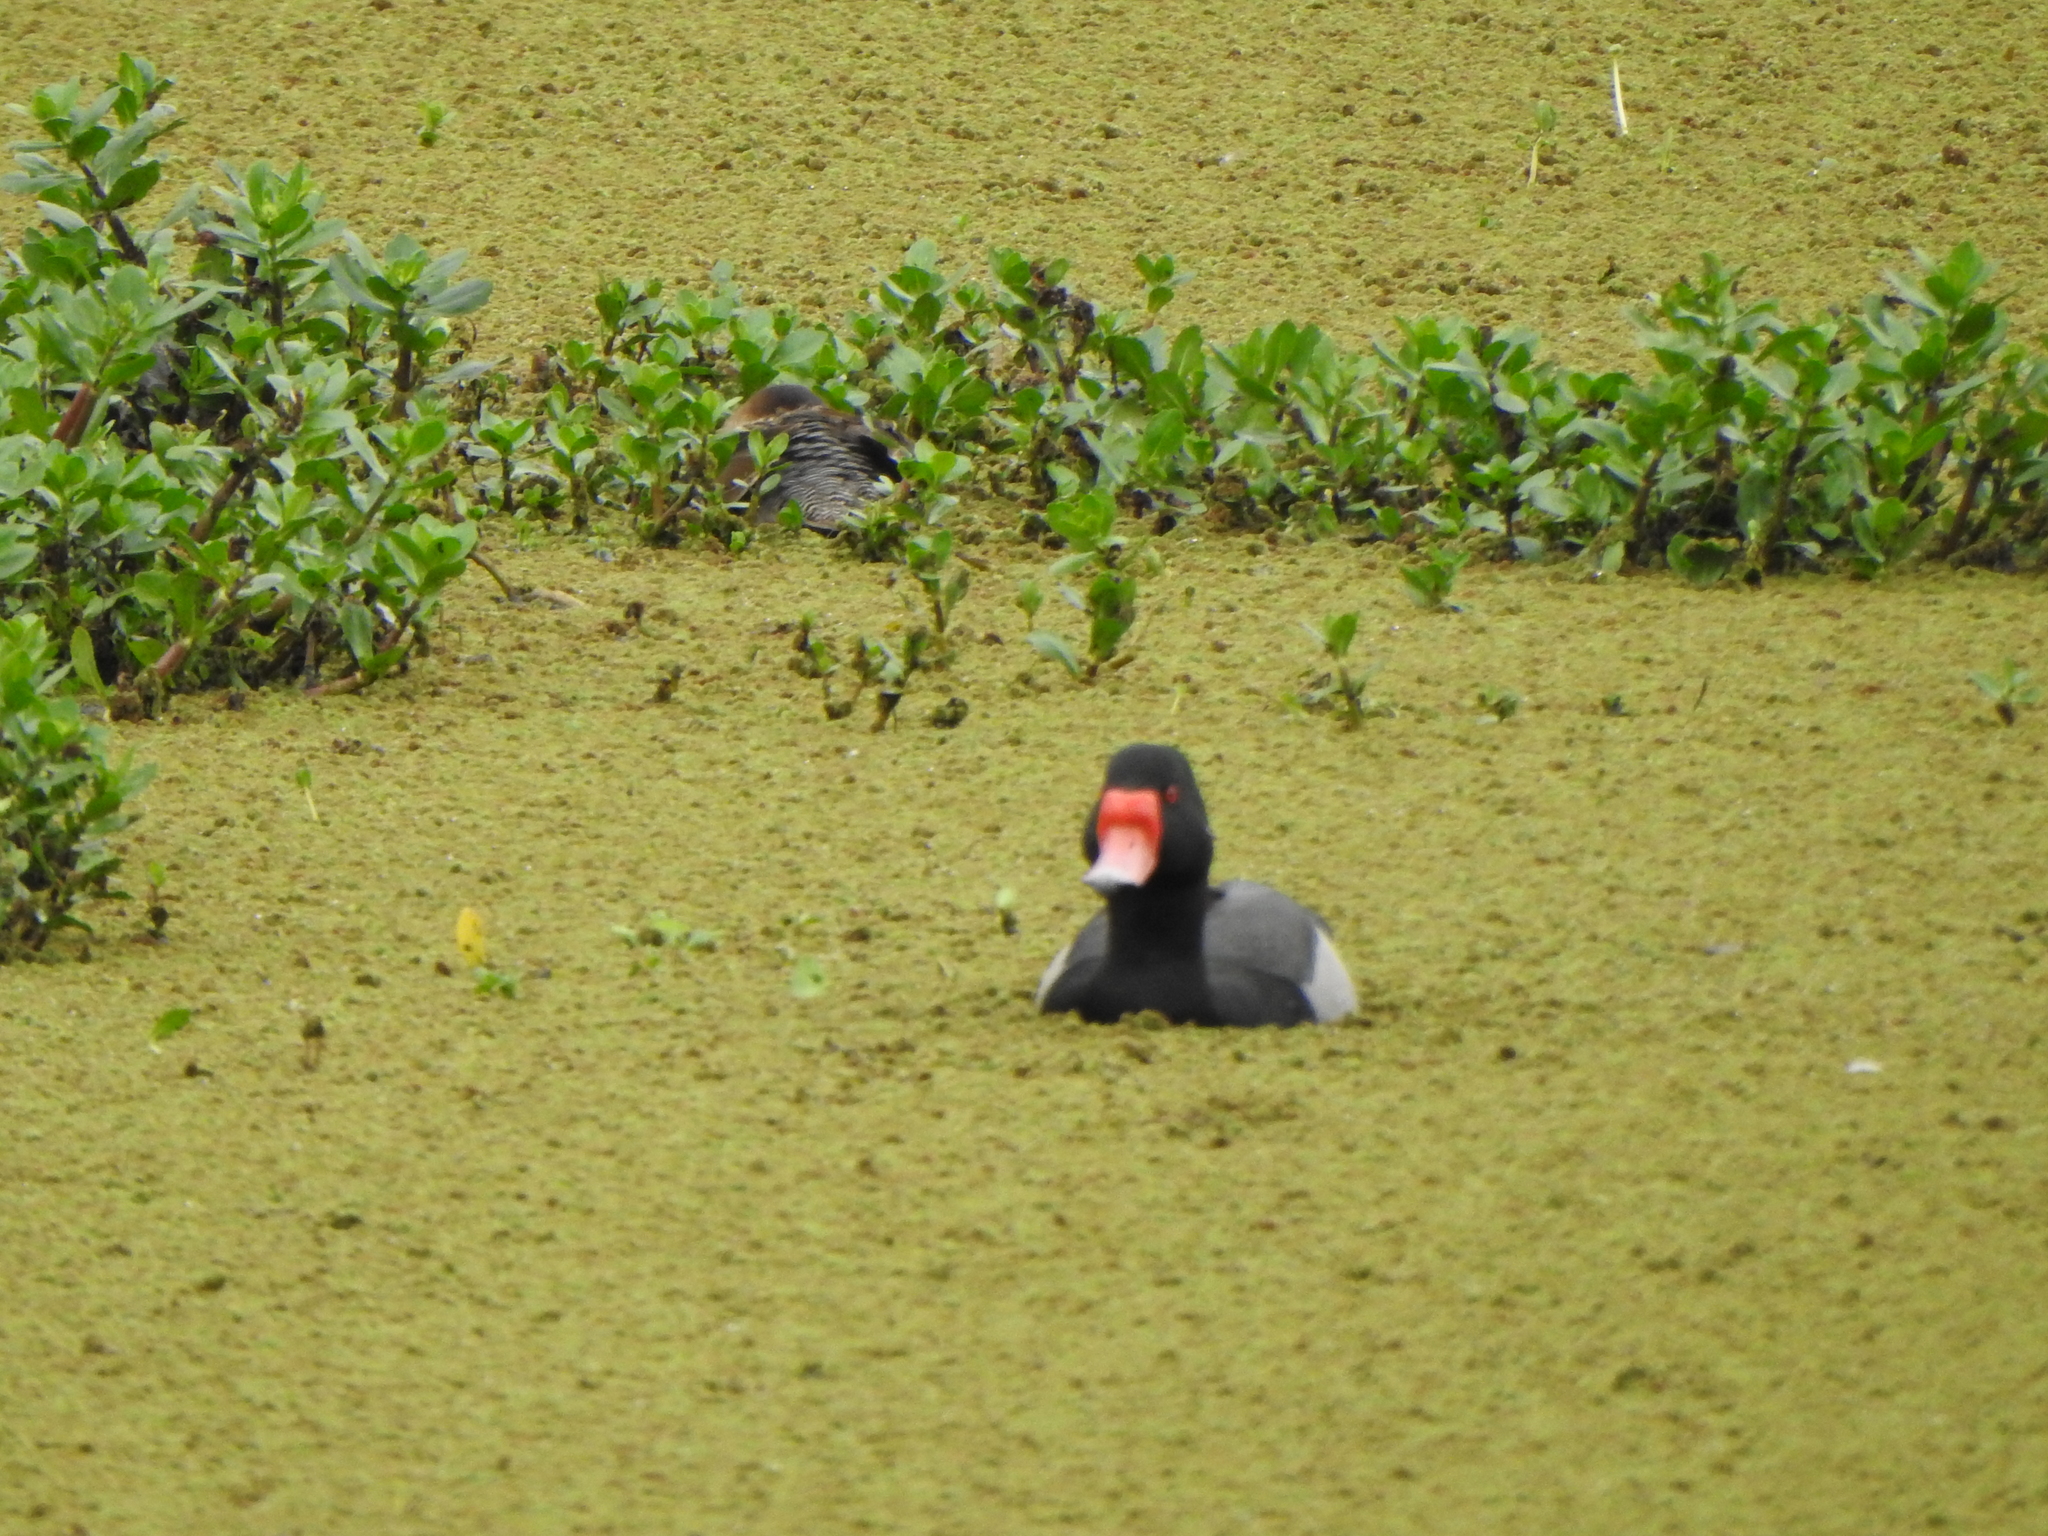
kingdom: Animalia
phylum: Chordata
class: Aves
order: Anseriformes
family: Anatidae
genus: Netta
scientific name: Netta peposaca
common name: Rosy-billed pochard
